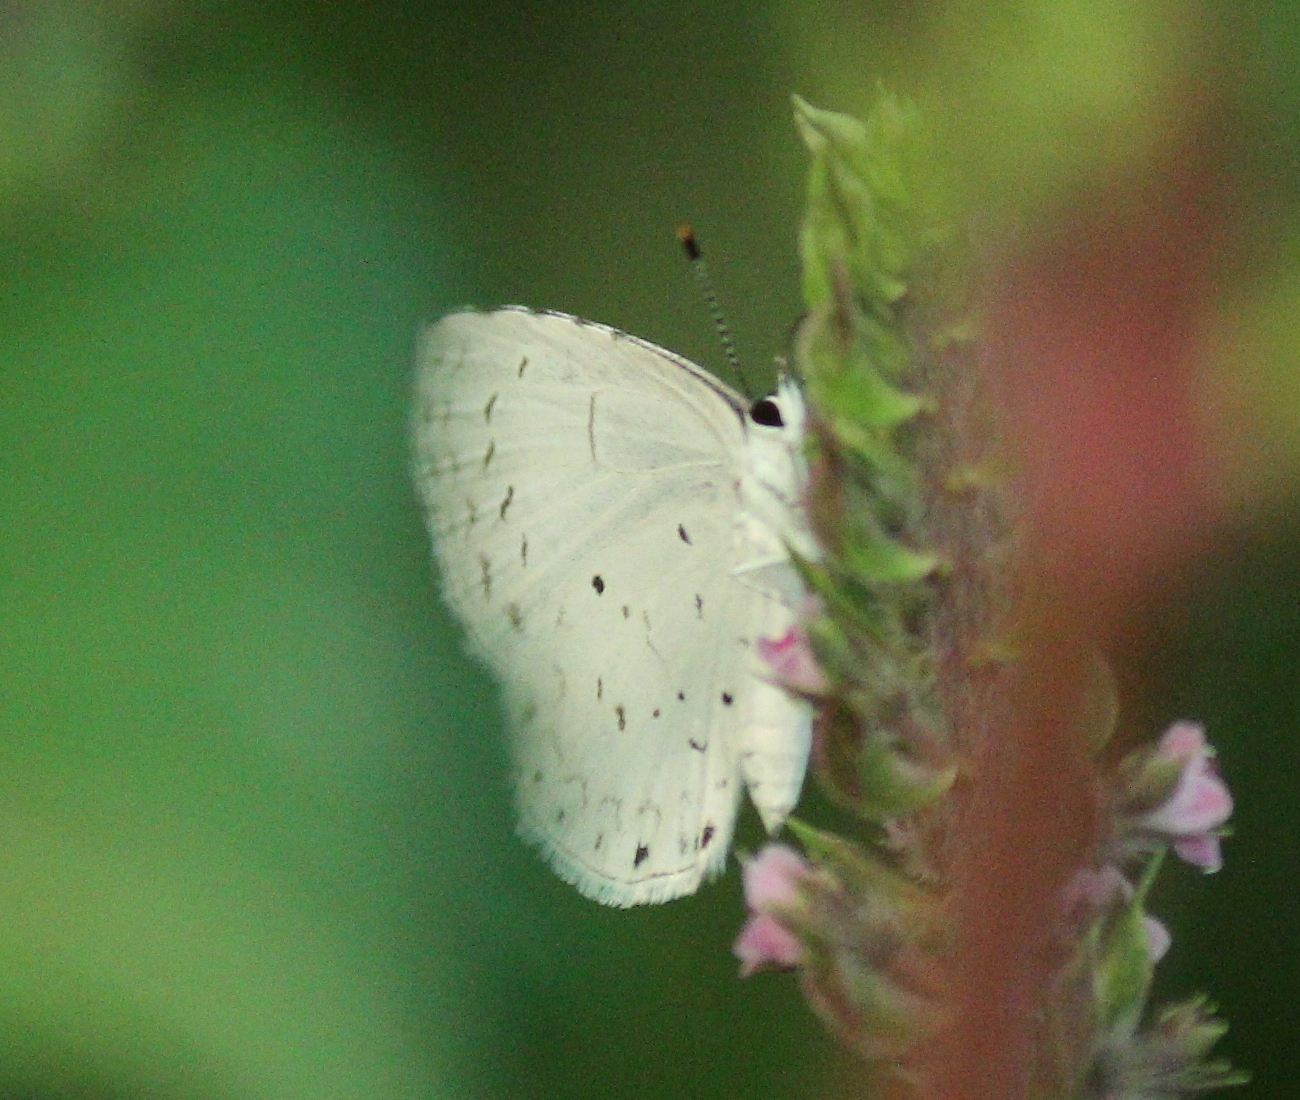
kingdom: Animalia
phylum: Arthropoda
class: Insecta
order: Lepidoptera
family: Lycaenidae
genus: Cyaniris
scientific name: Cyaniris neglecta
